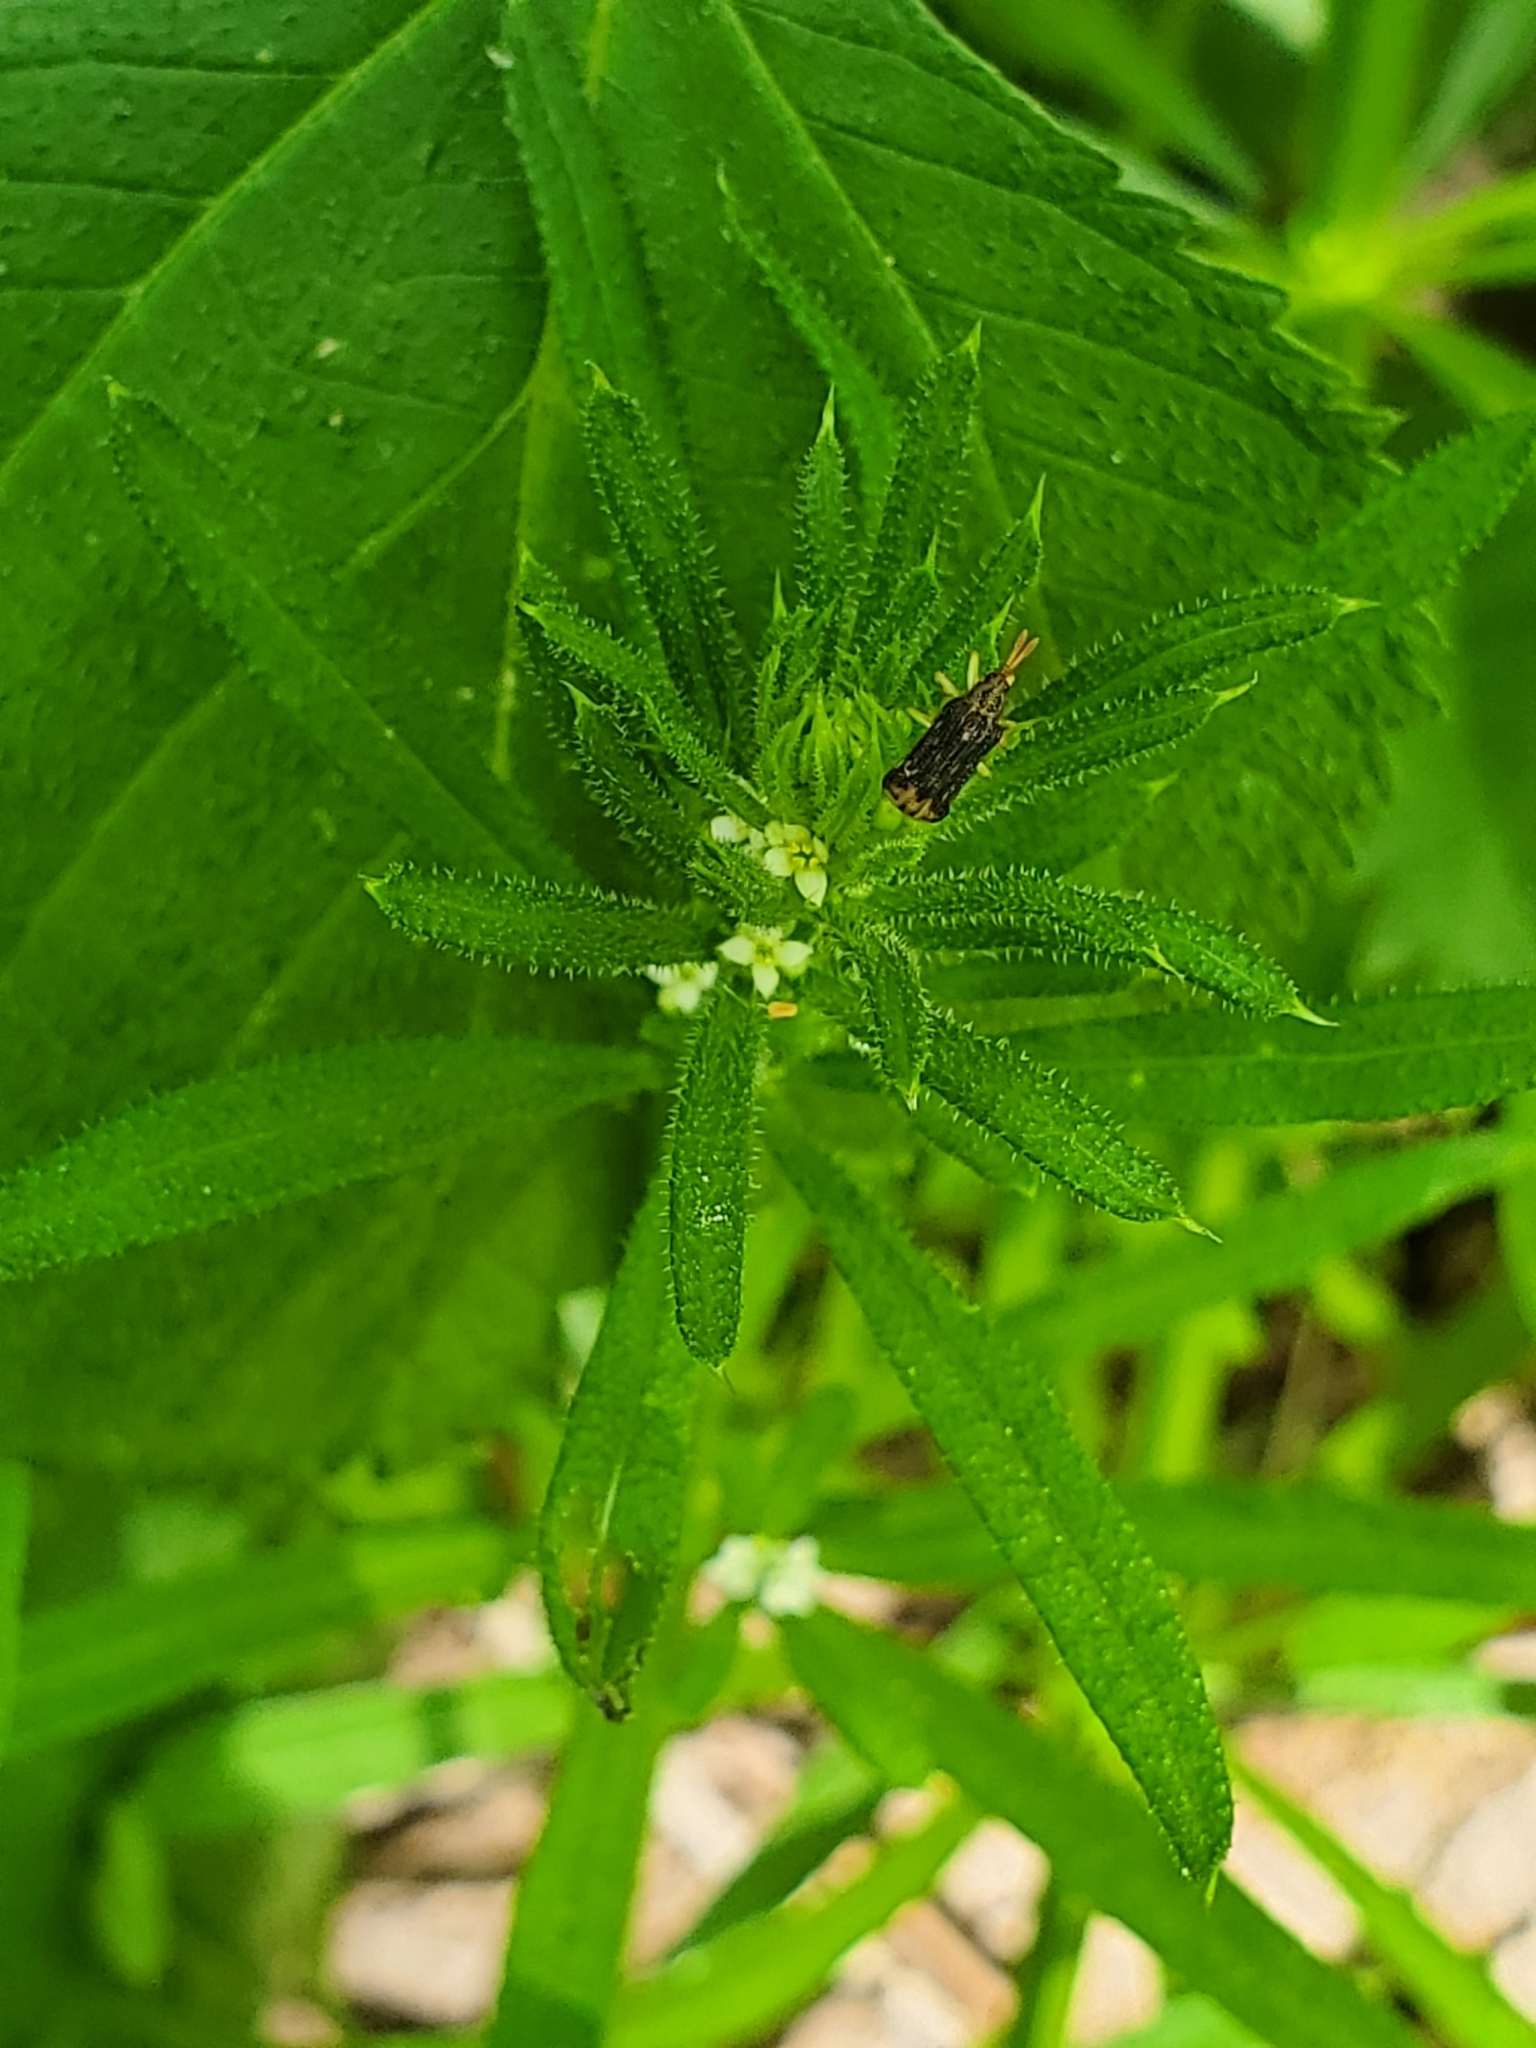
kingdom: Plantae
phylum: Tracheophyta
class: Magnoliopsida
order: Gentianales
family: Rubiaceae
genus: Galium
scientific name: Galium aparine
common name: Cleavers
